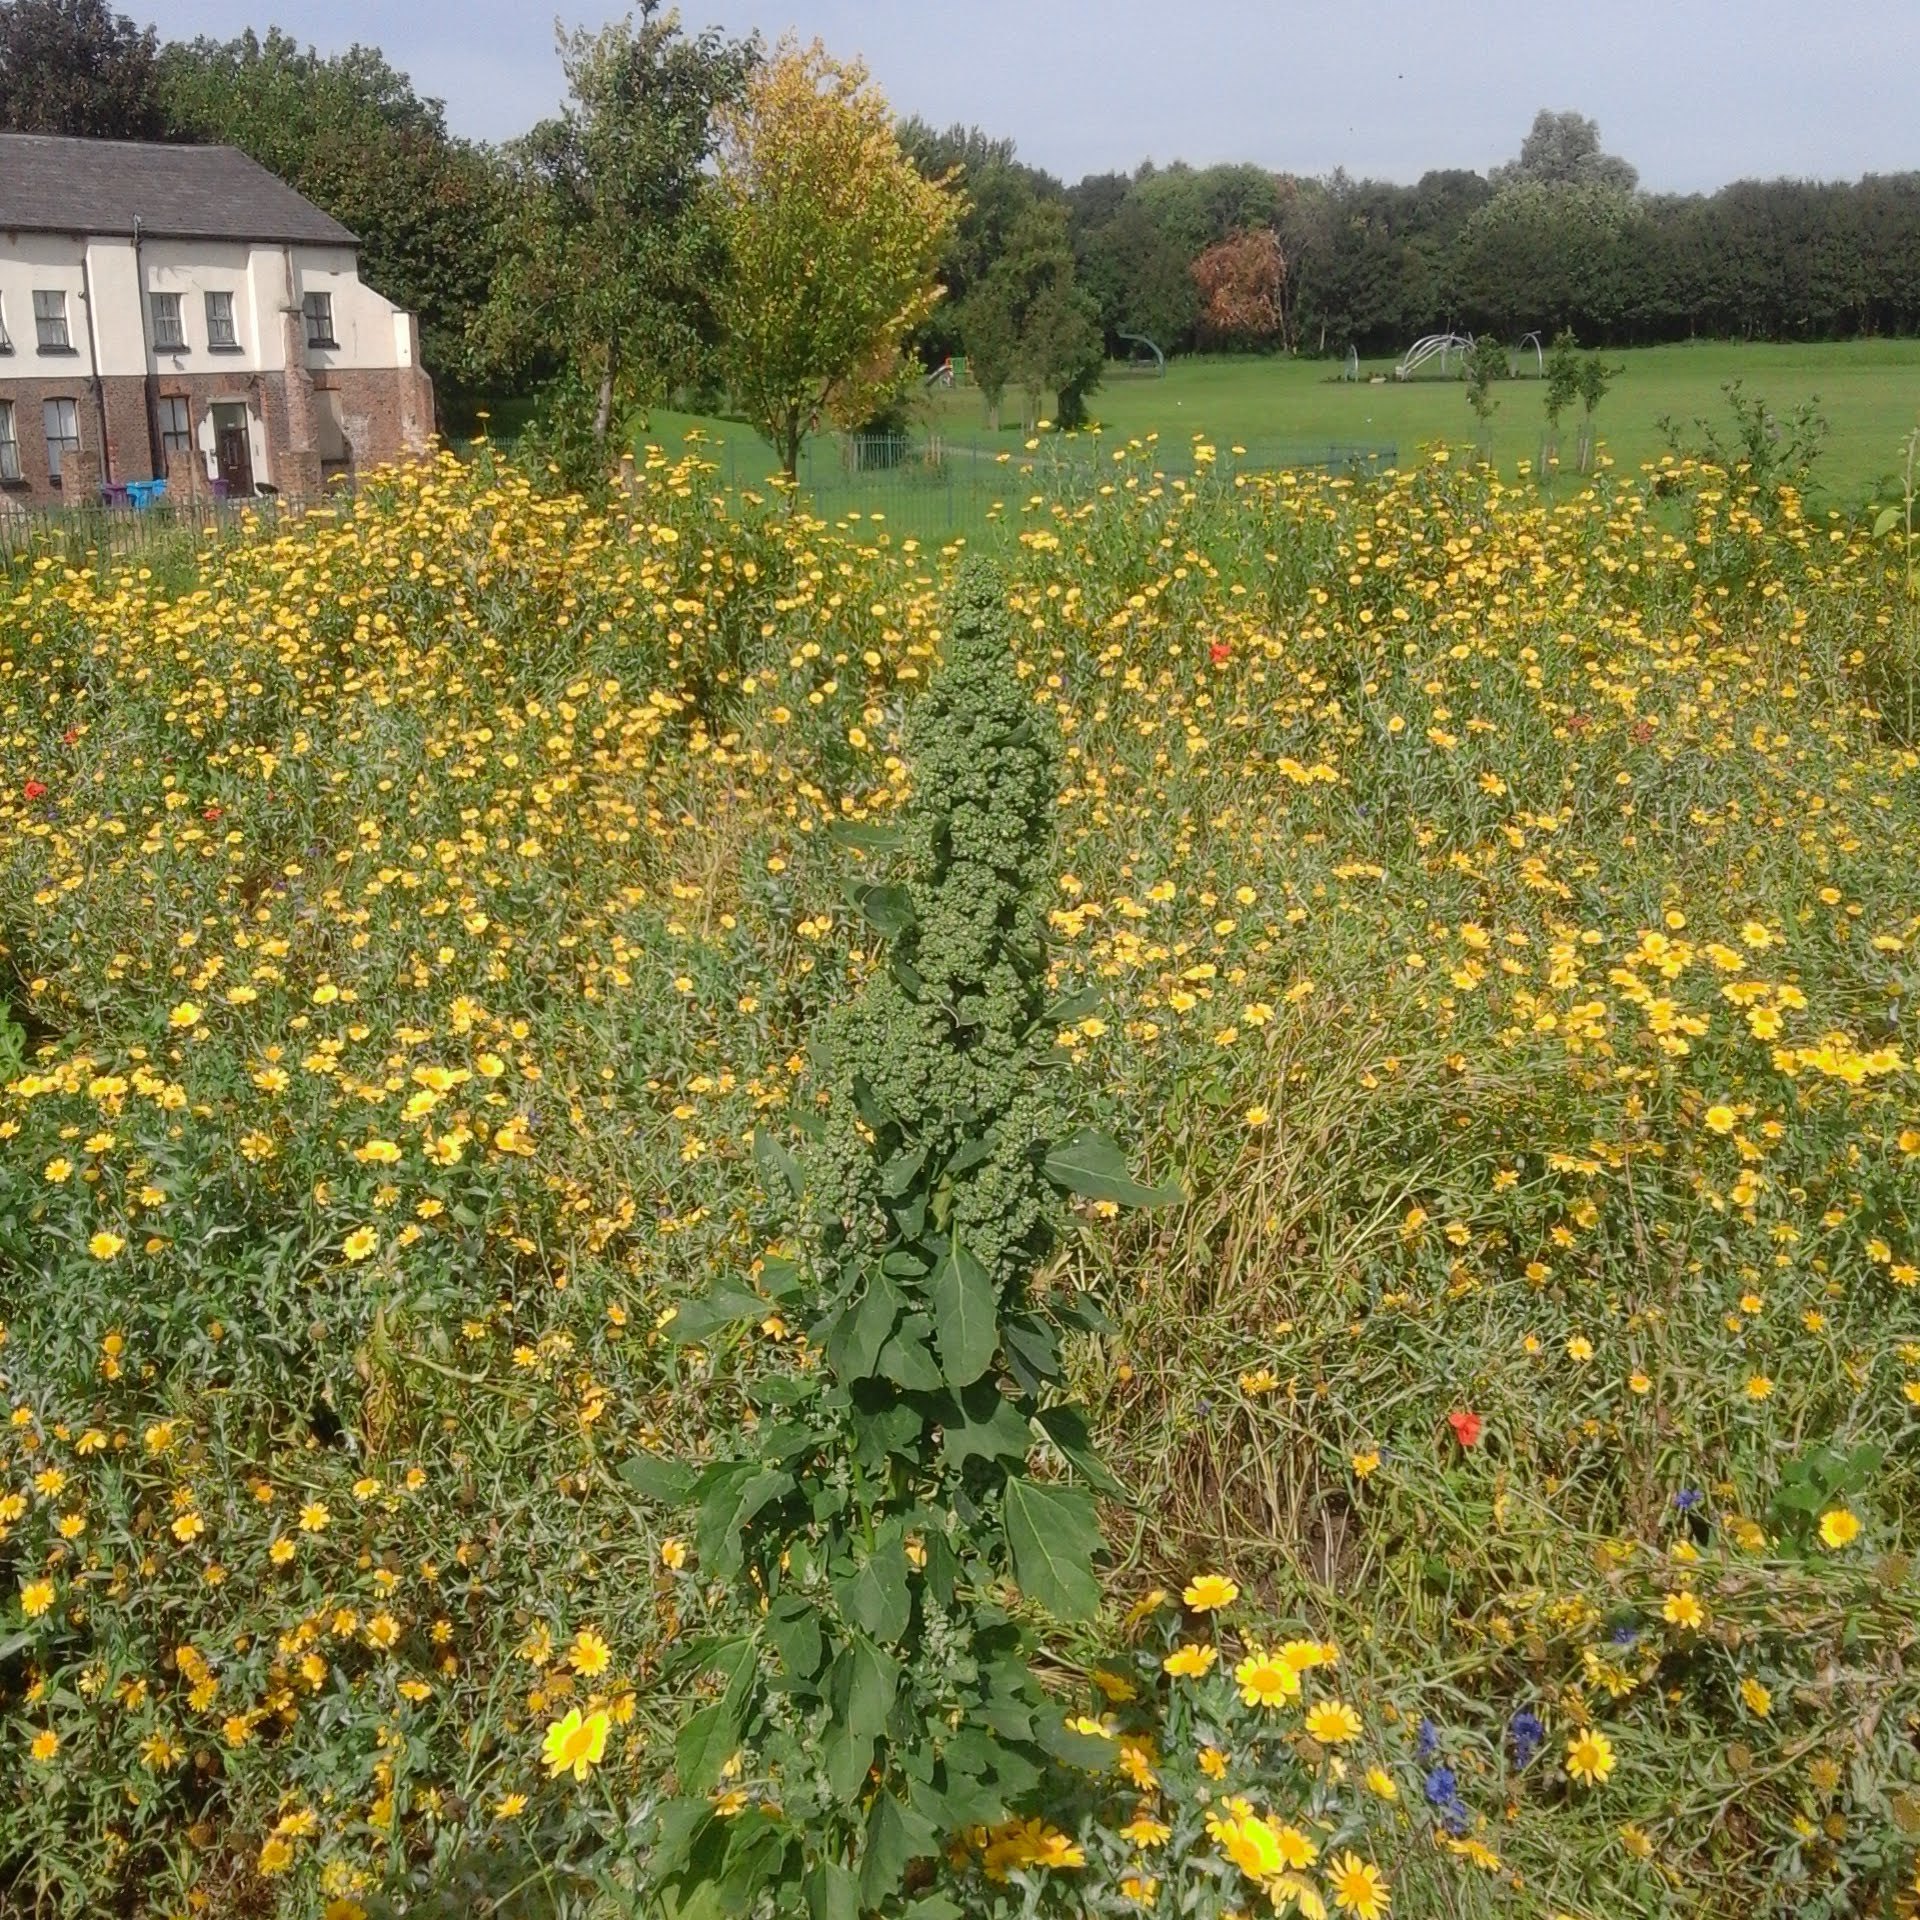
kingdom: Plantae
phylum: Tracheophyta
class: Magnoliopsida
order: Caryophyllales
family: Amaranthaceae
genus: Chenopodium
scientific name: Chenopodium quinoa
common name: Quinoa
